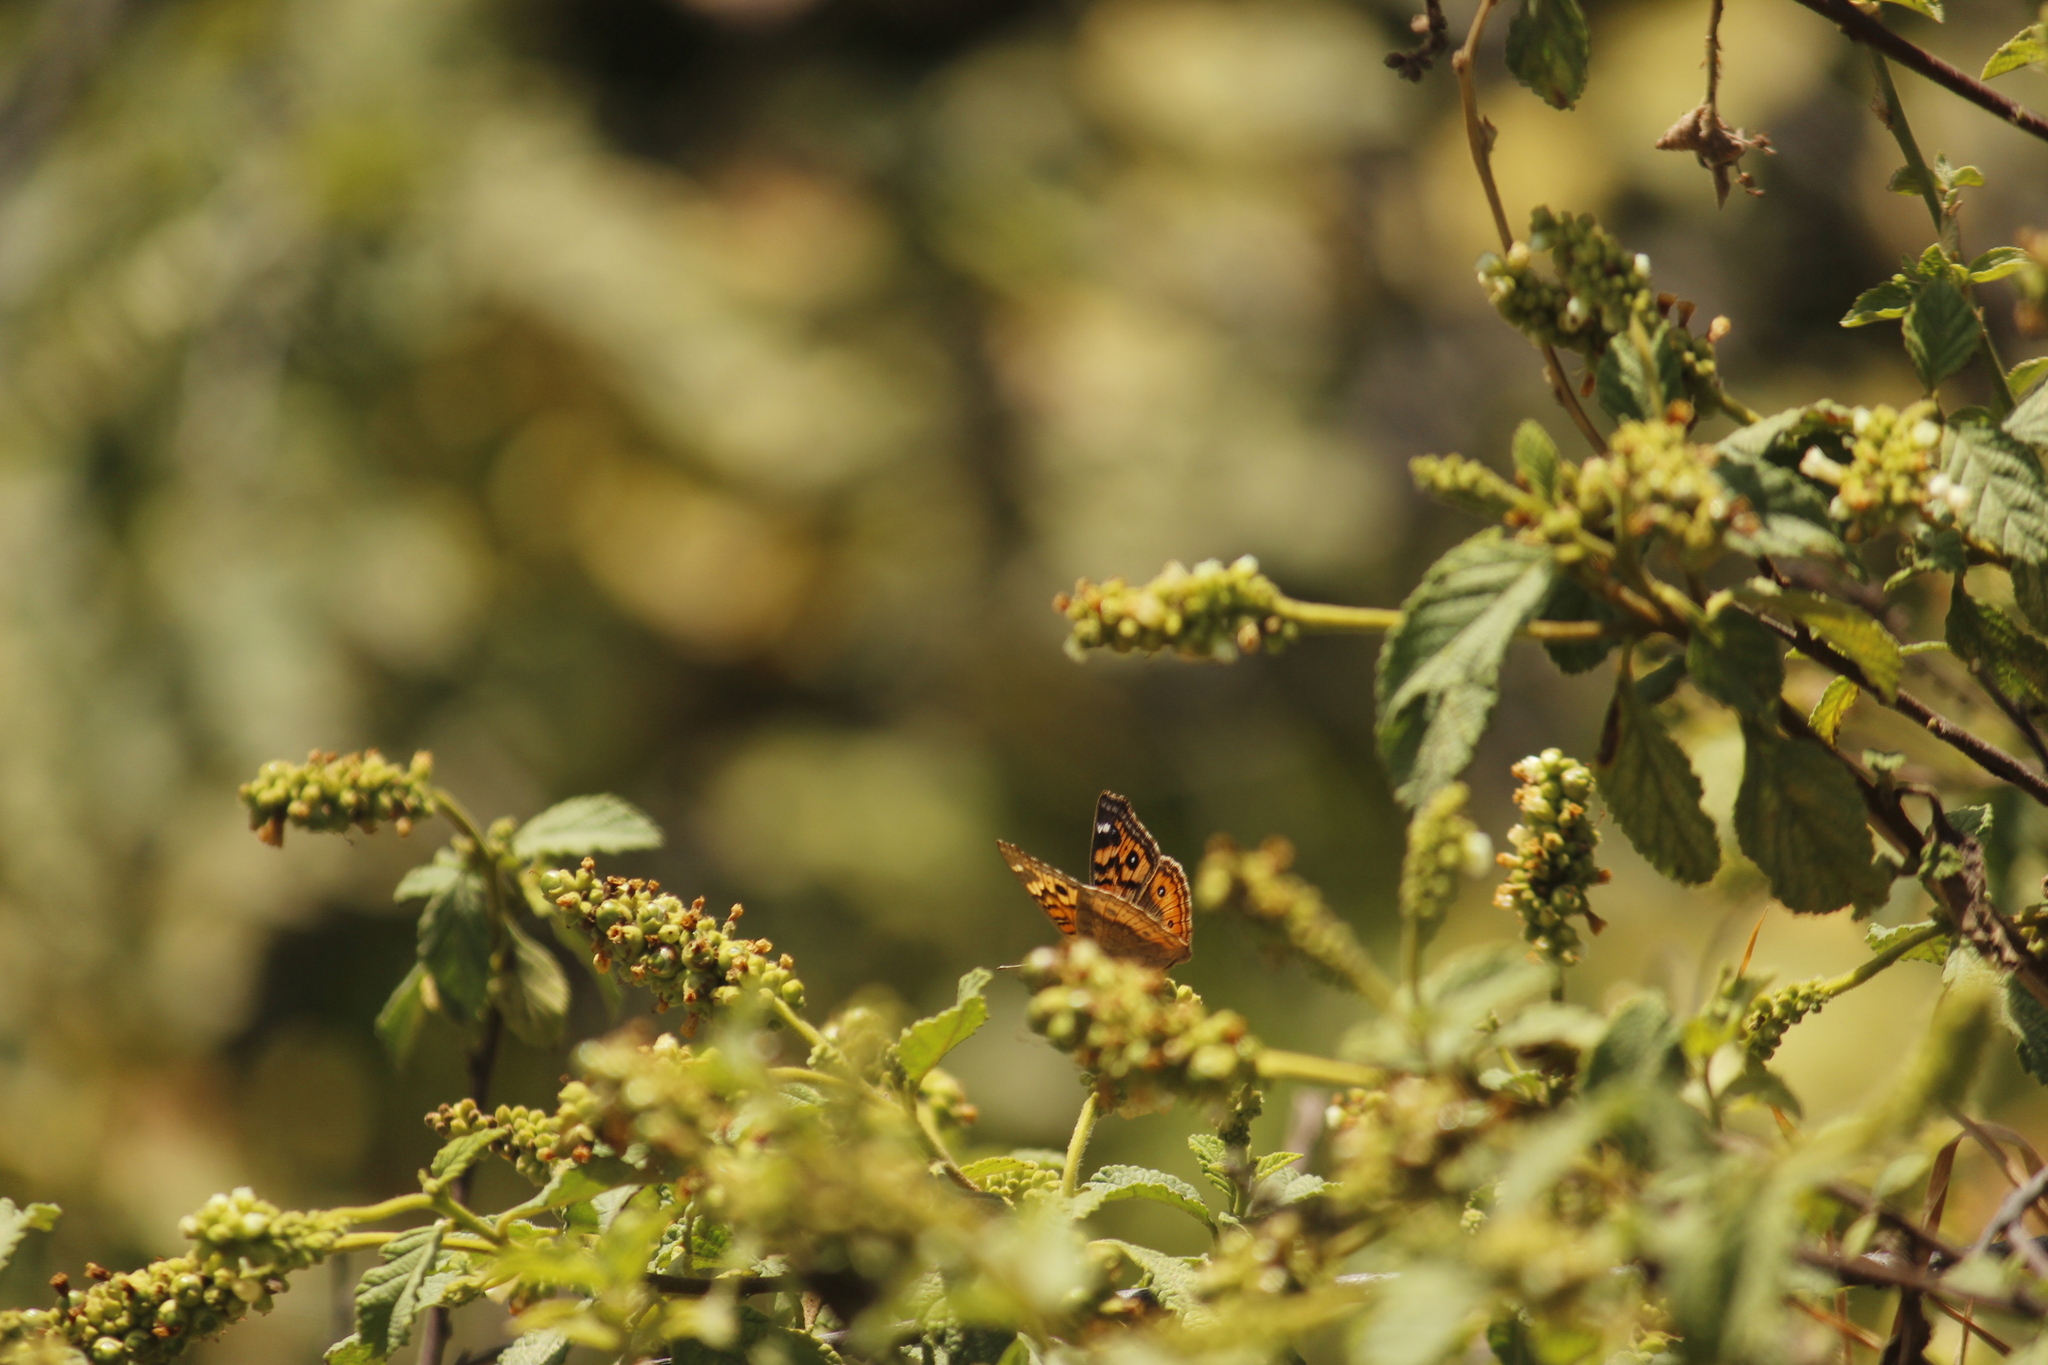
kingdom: Animalia
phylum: Arthropoda
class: Insecta
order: Lepidoptera
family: Nymphalidae
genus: Junonia
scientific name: Junonia vestina
